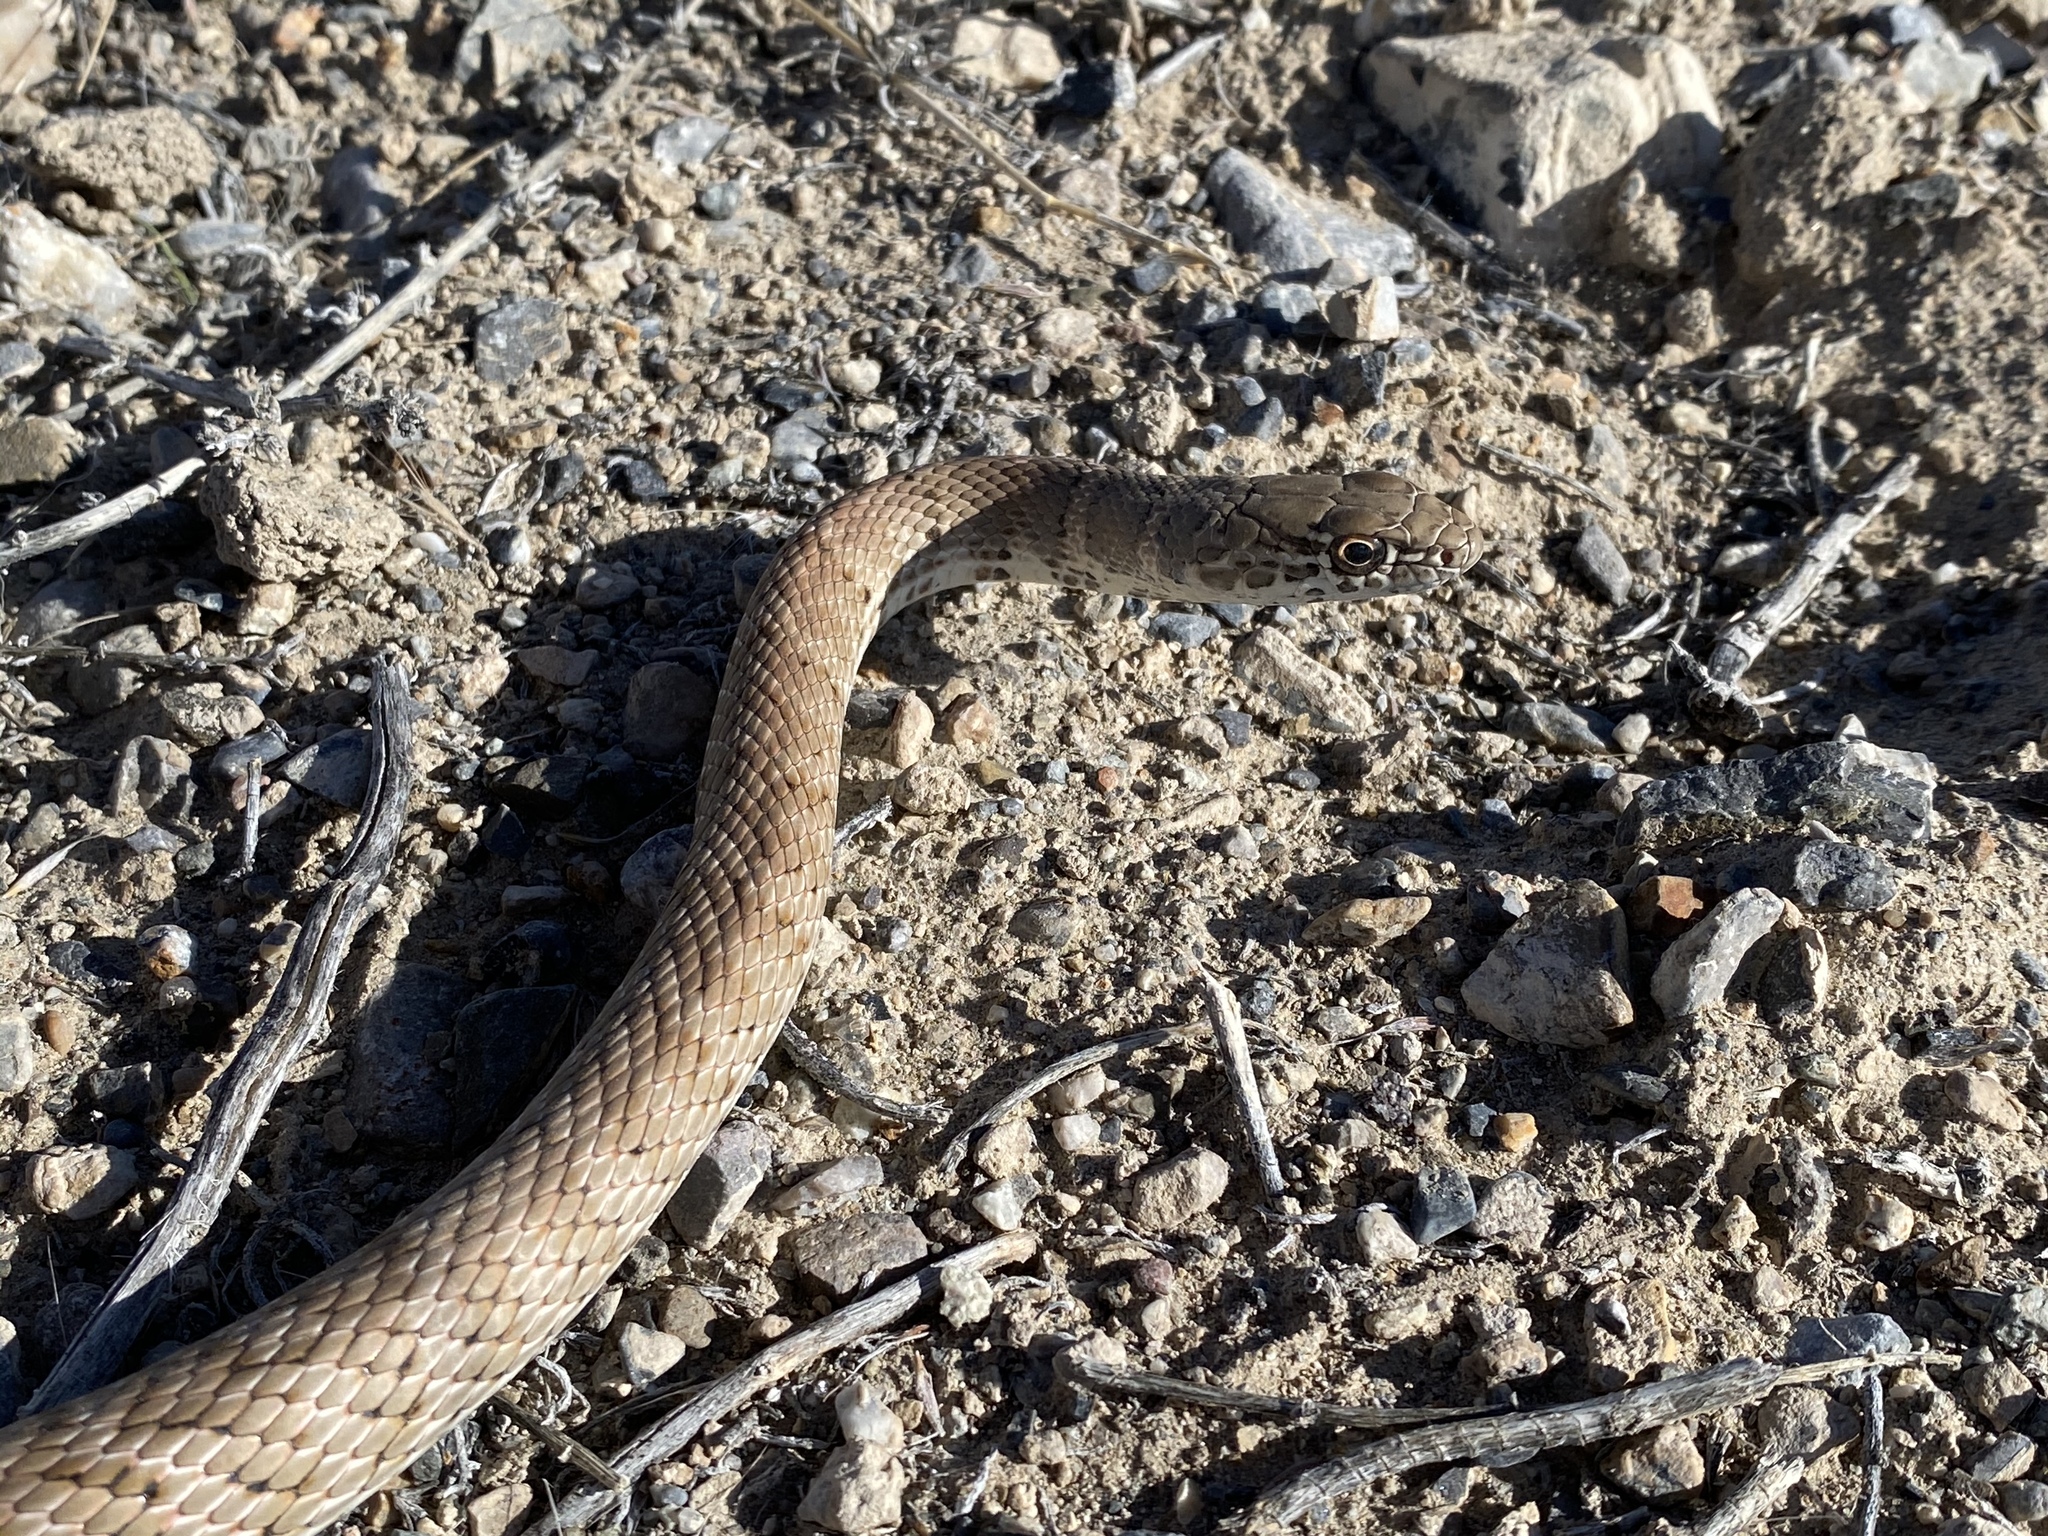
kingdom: Animalia
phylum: Chordata
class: Squamata
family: Colubridae
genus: Masticophis
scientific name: Masticophis flagellum
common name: Coachwhip
